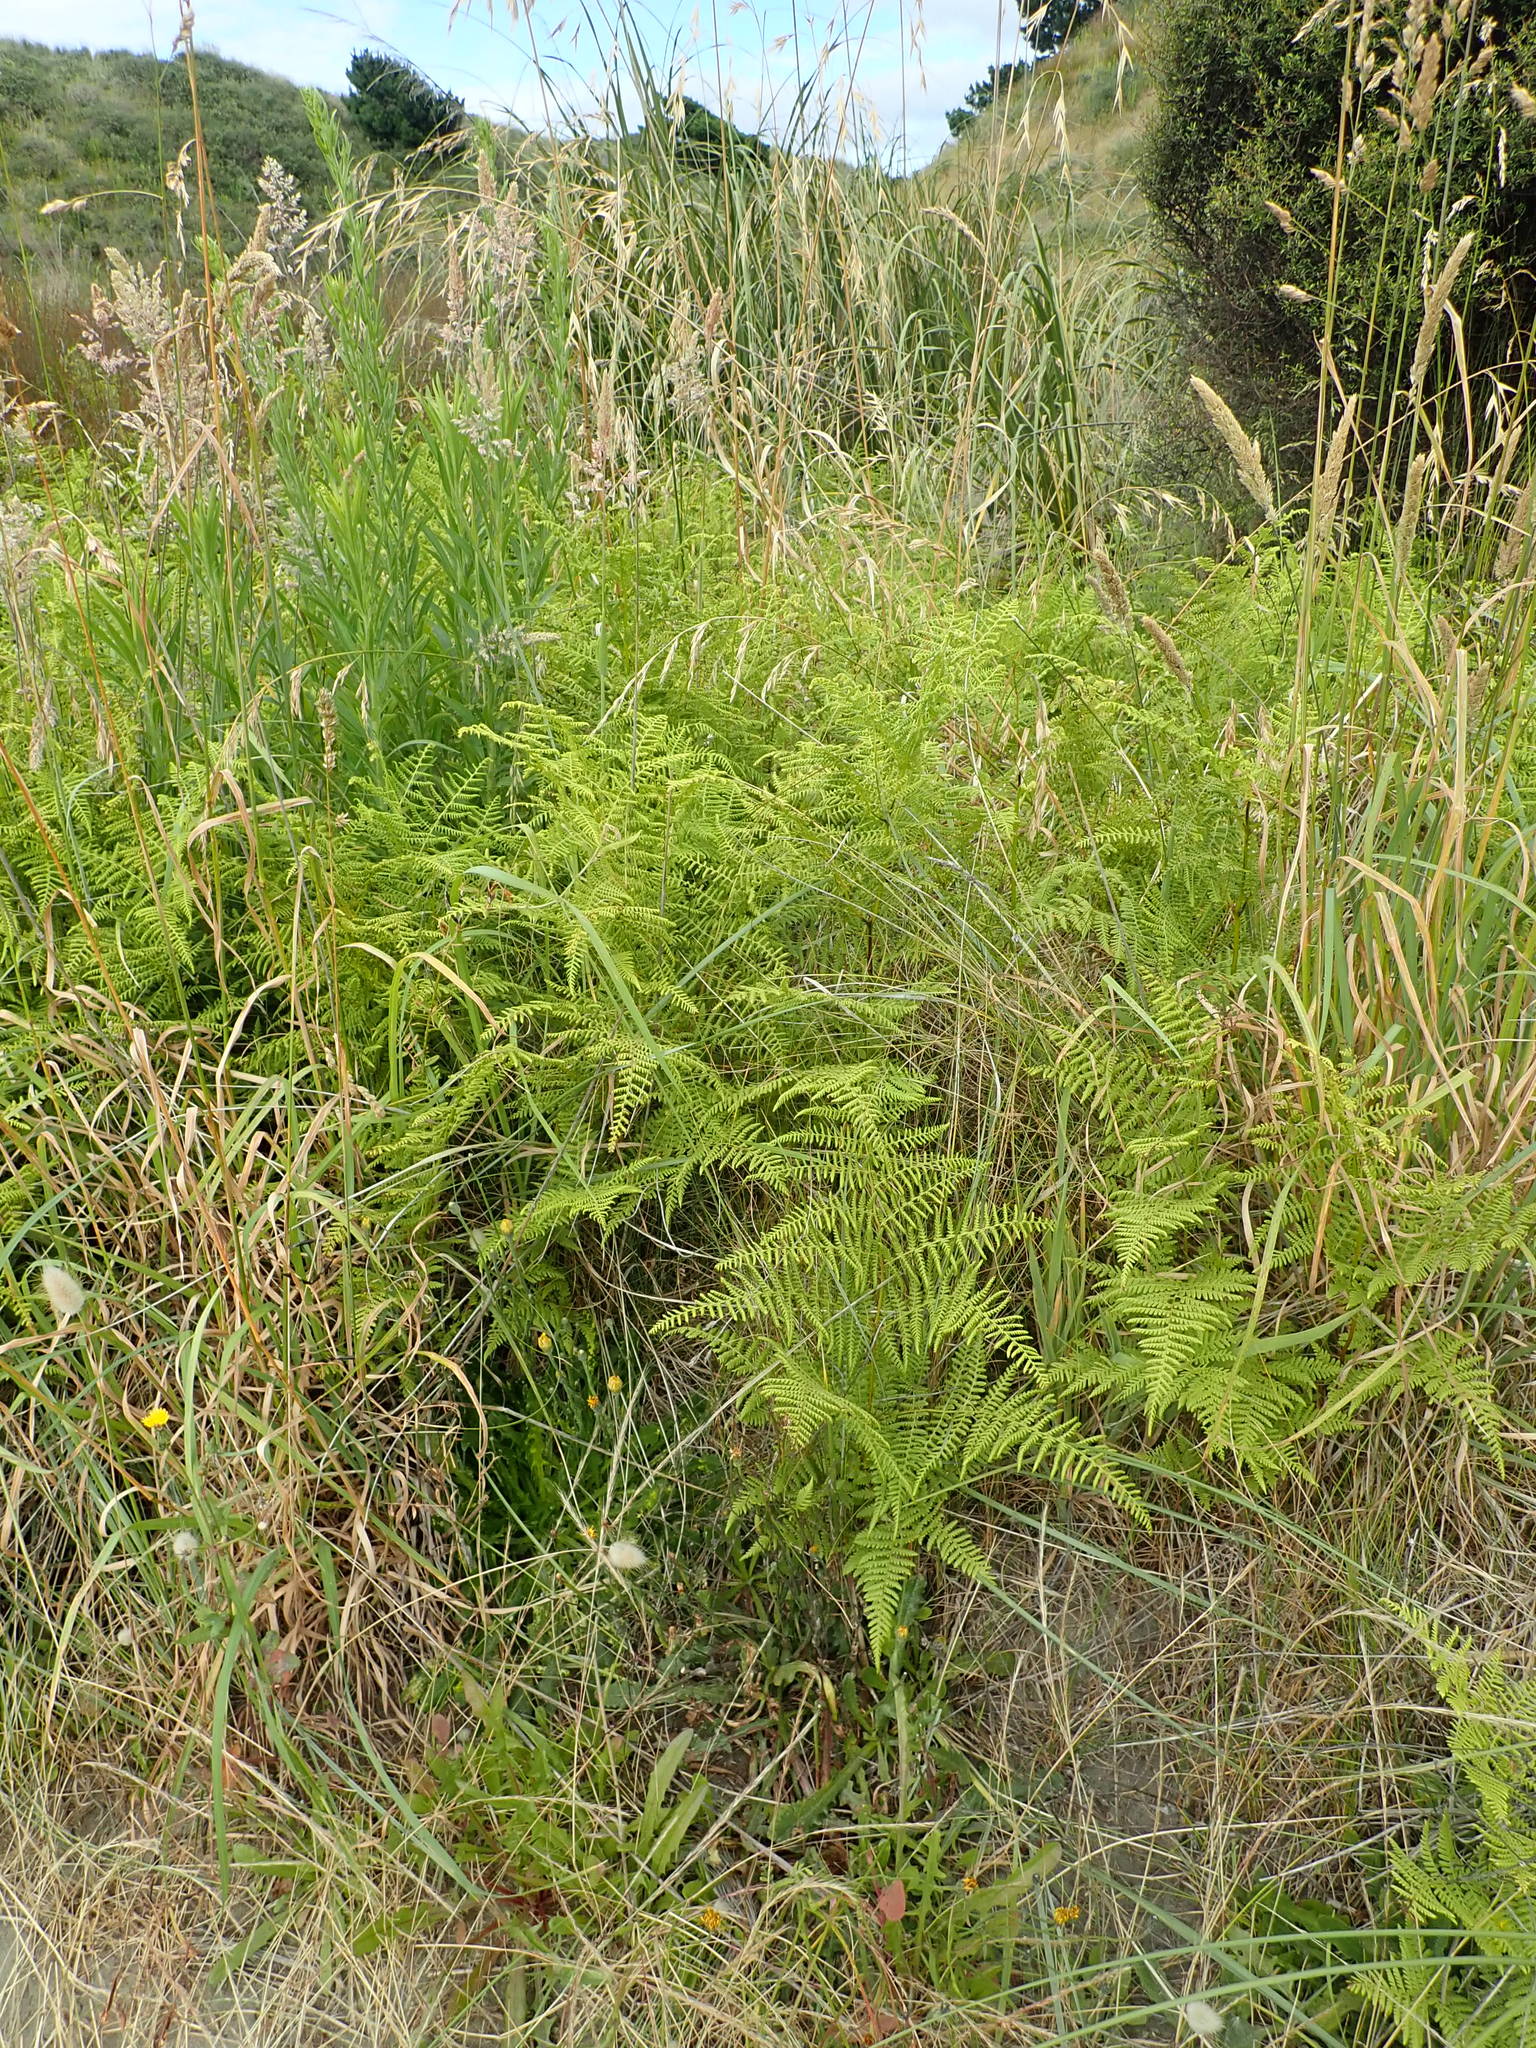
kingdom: Plantae
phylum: Tracheophyta
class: Polypodiopsida
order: Polypodiales
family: Dennstaedtiaceae
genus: Hypolepis
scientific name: Hypolepis ambigua
